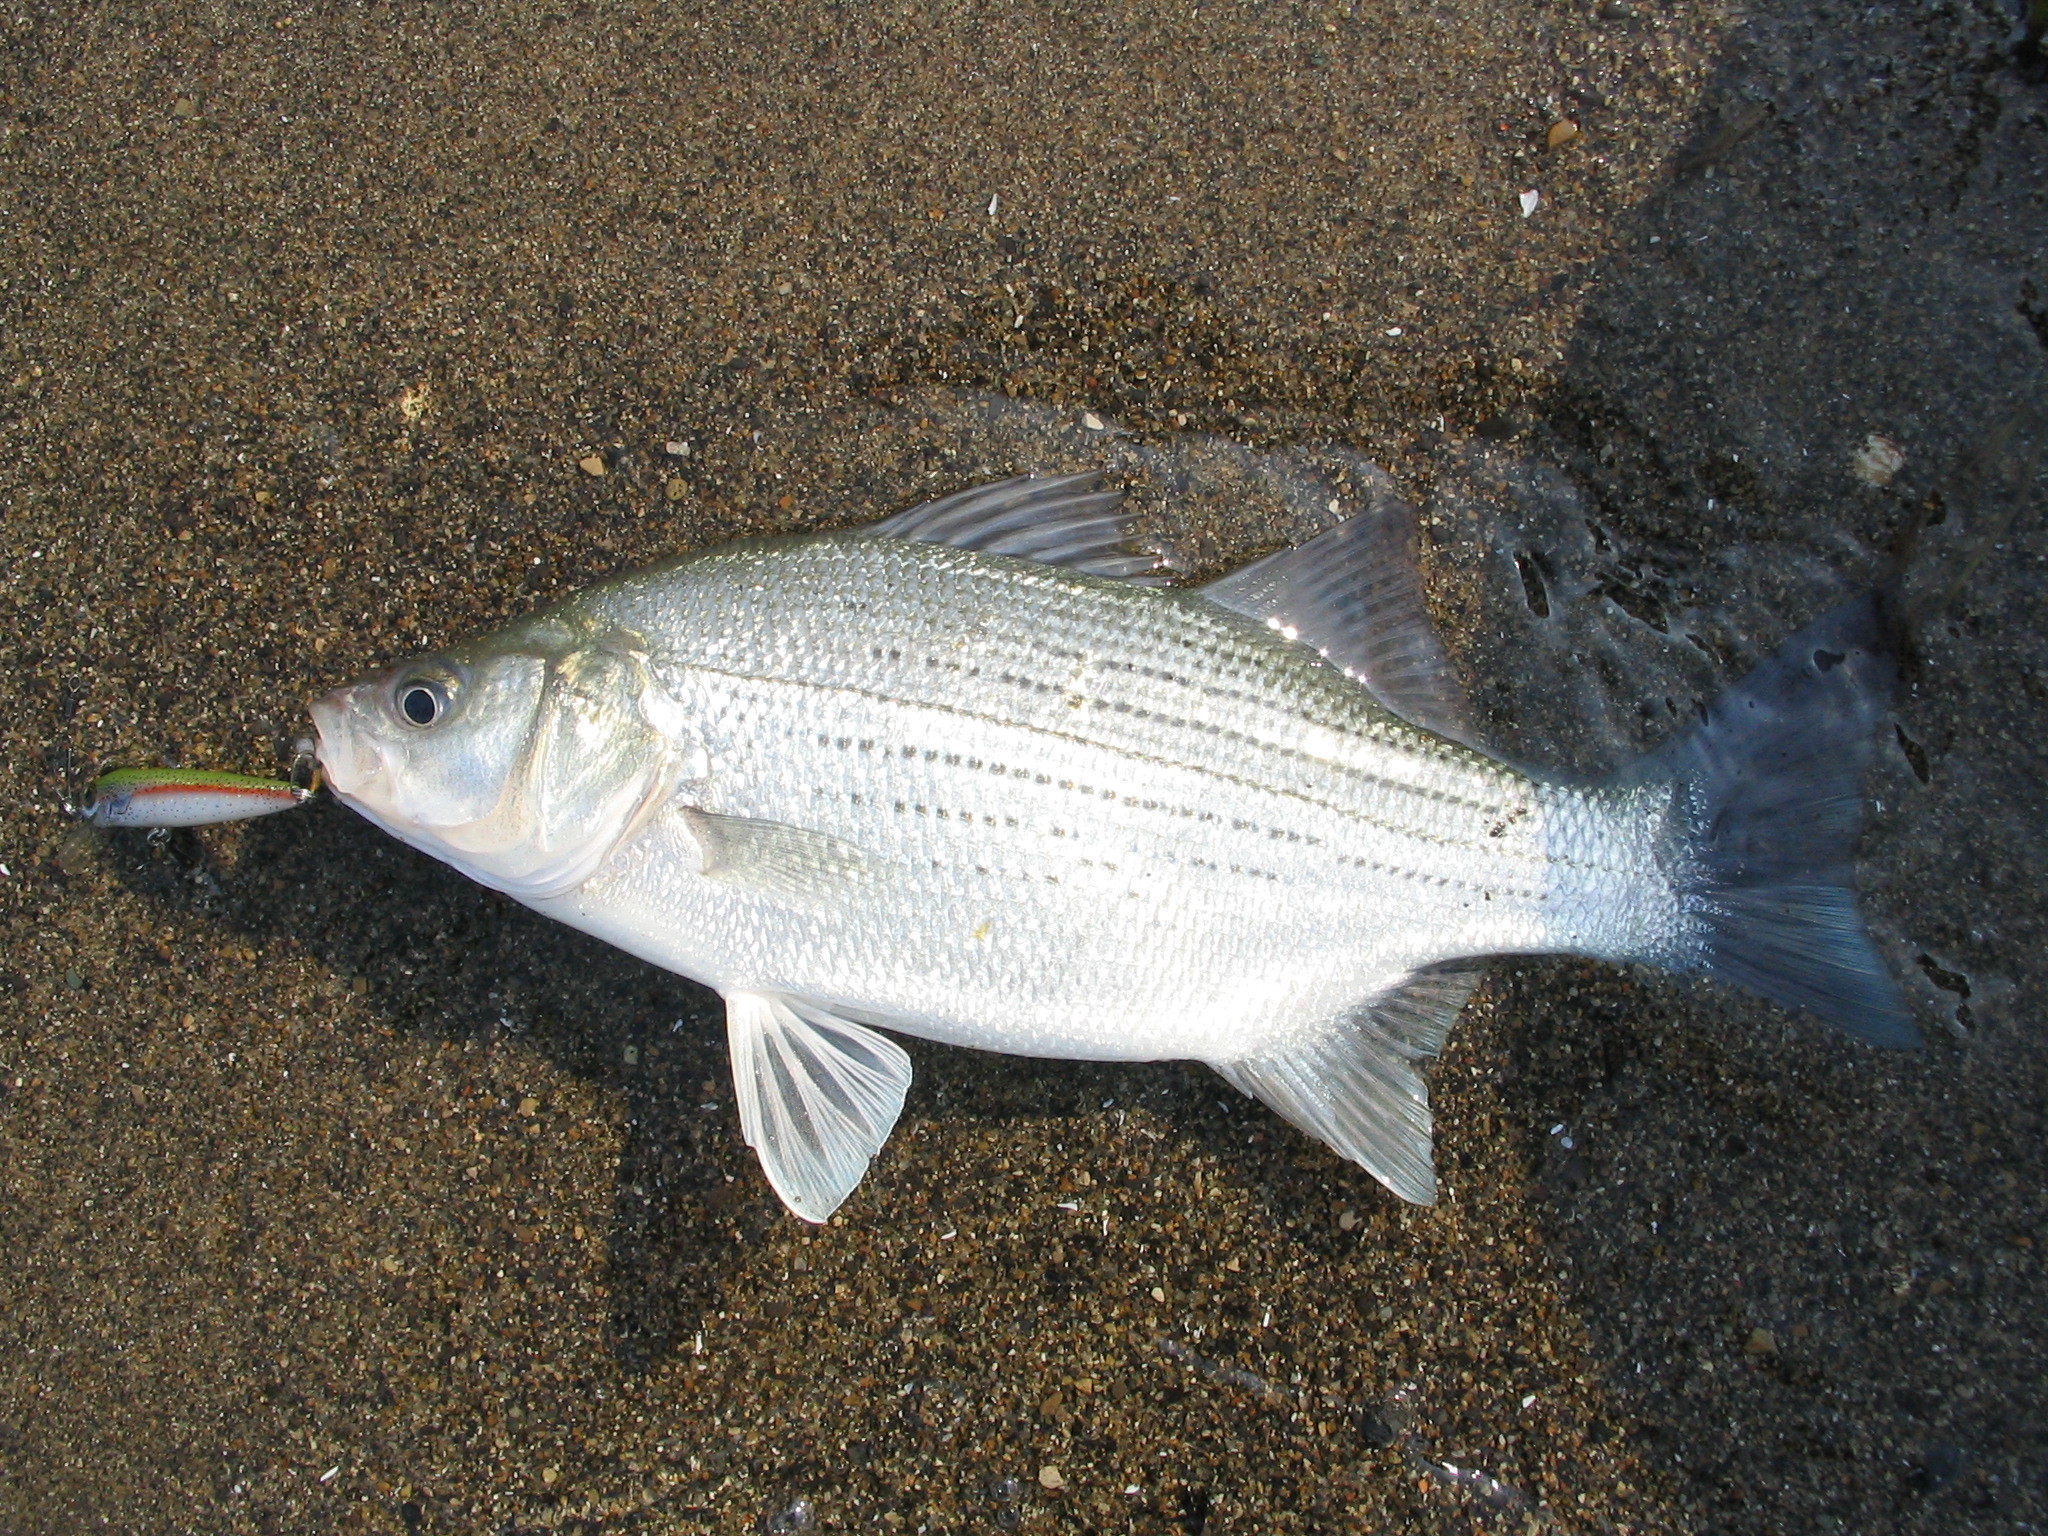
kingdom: Animalia
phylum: Chordata
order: Perciformes
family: Moronidae
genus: Morone
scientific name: Morone chrysops
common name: White bass
